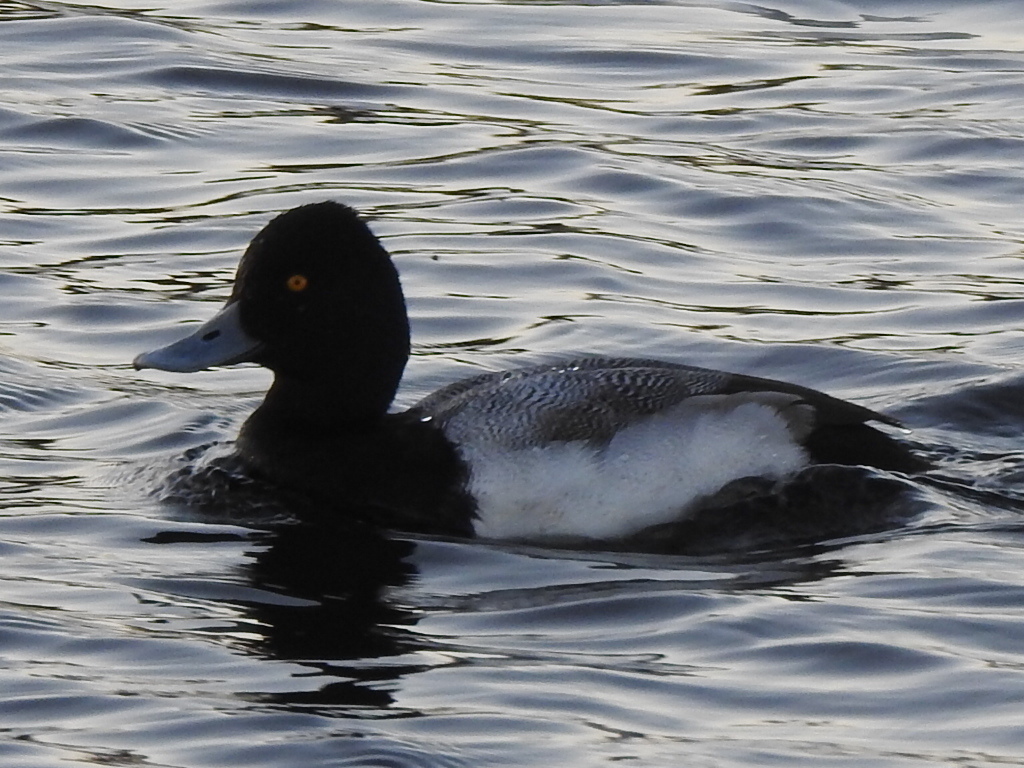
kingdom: Animalia
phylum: Chordata
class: Aves
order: Anseriformes
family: Anatidae
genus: Aythya
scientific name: Aythya affinis
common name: Lesser scaup
